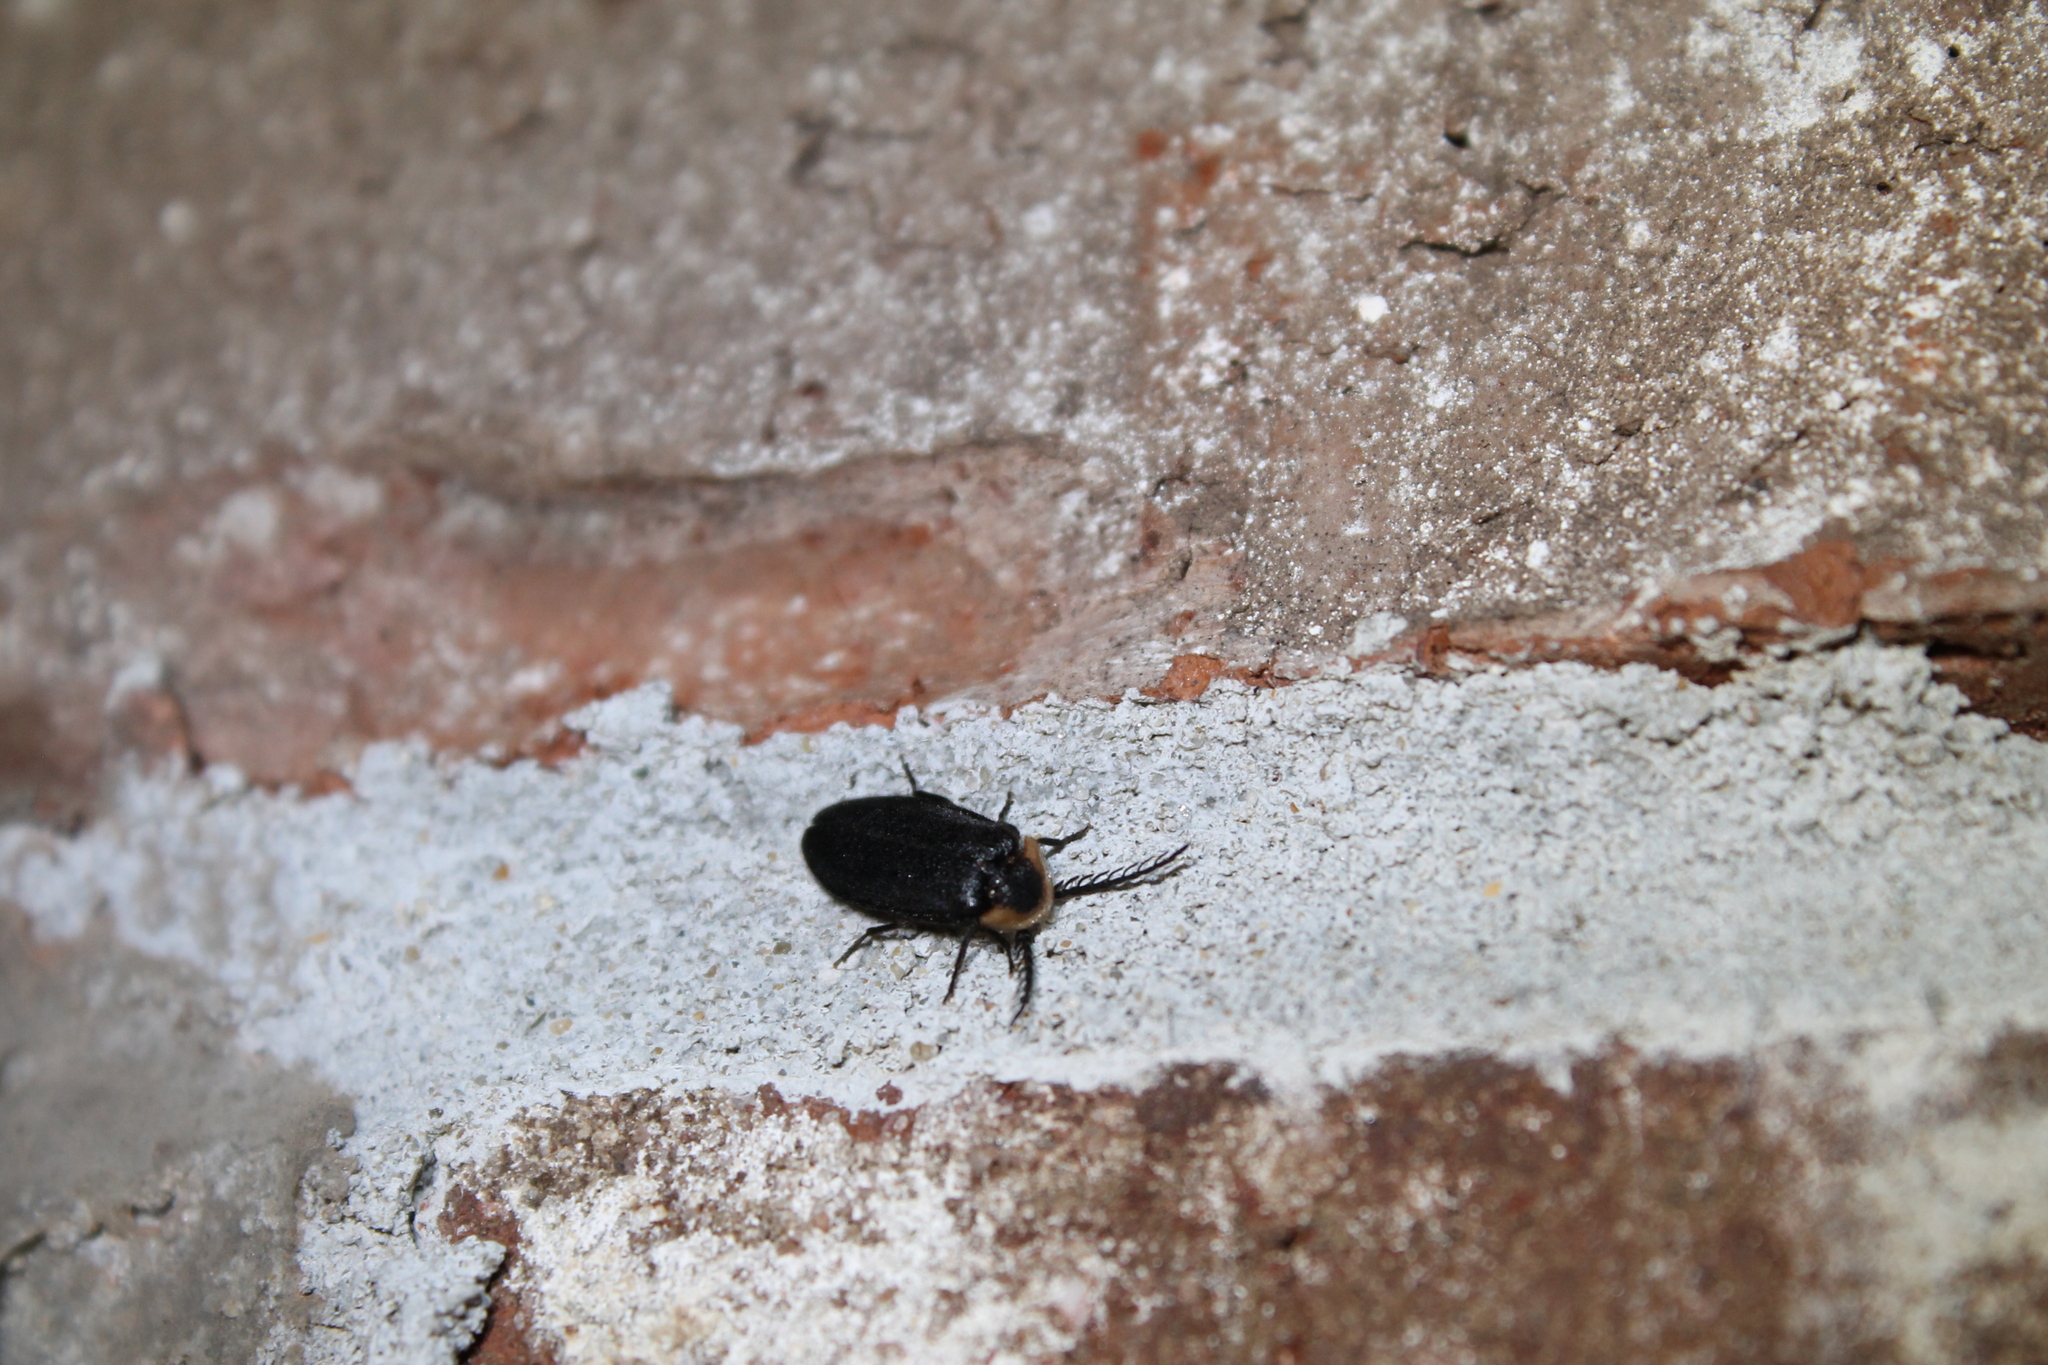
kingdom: Animalia
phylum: Arthropoda
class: Insecta
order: Coleoptera
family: Lampyridae
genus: Pollaclasis
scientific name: Pollaclasis bifaria
